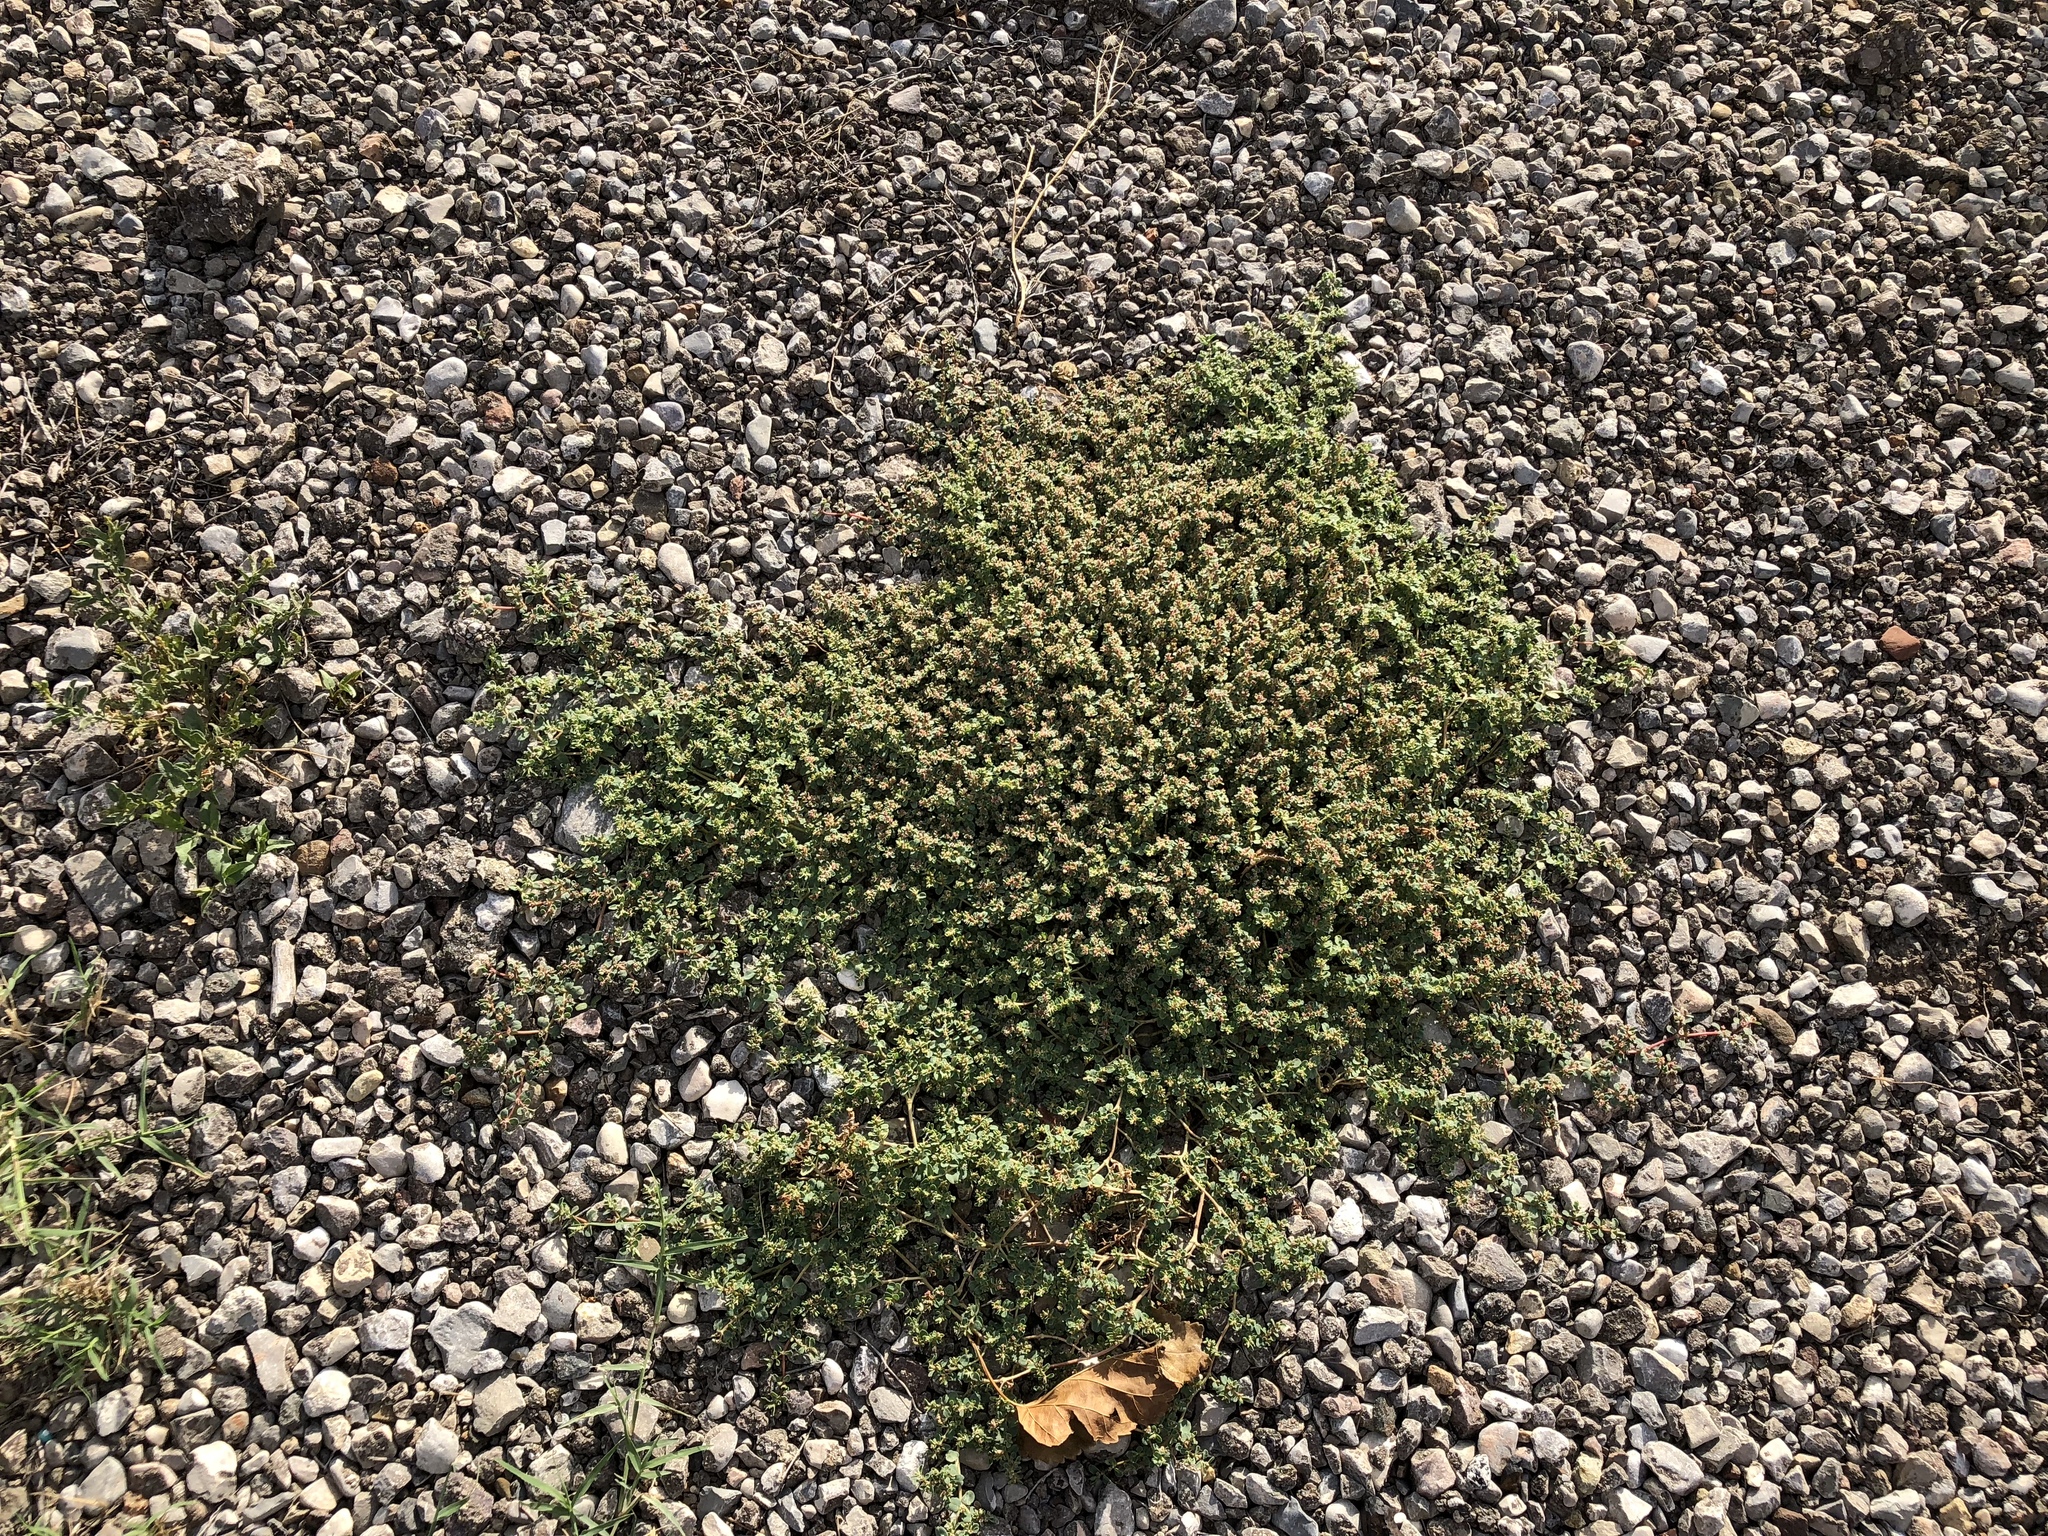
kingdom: Plantae
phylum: Tracheophyta
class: Magnoliopsida
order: Malpighiales
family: Euphorbiaceae
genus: Euphorbia
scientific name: Euphorbia albomarginata
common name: Whitemargin sandmat
